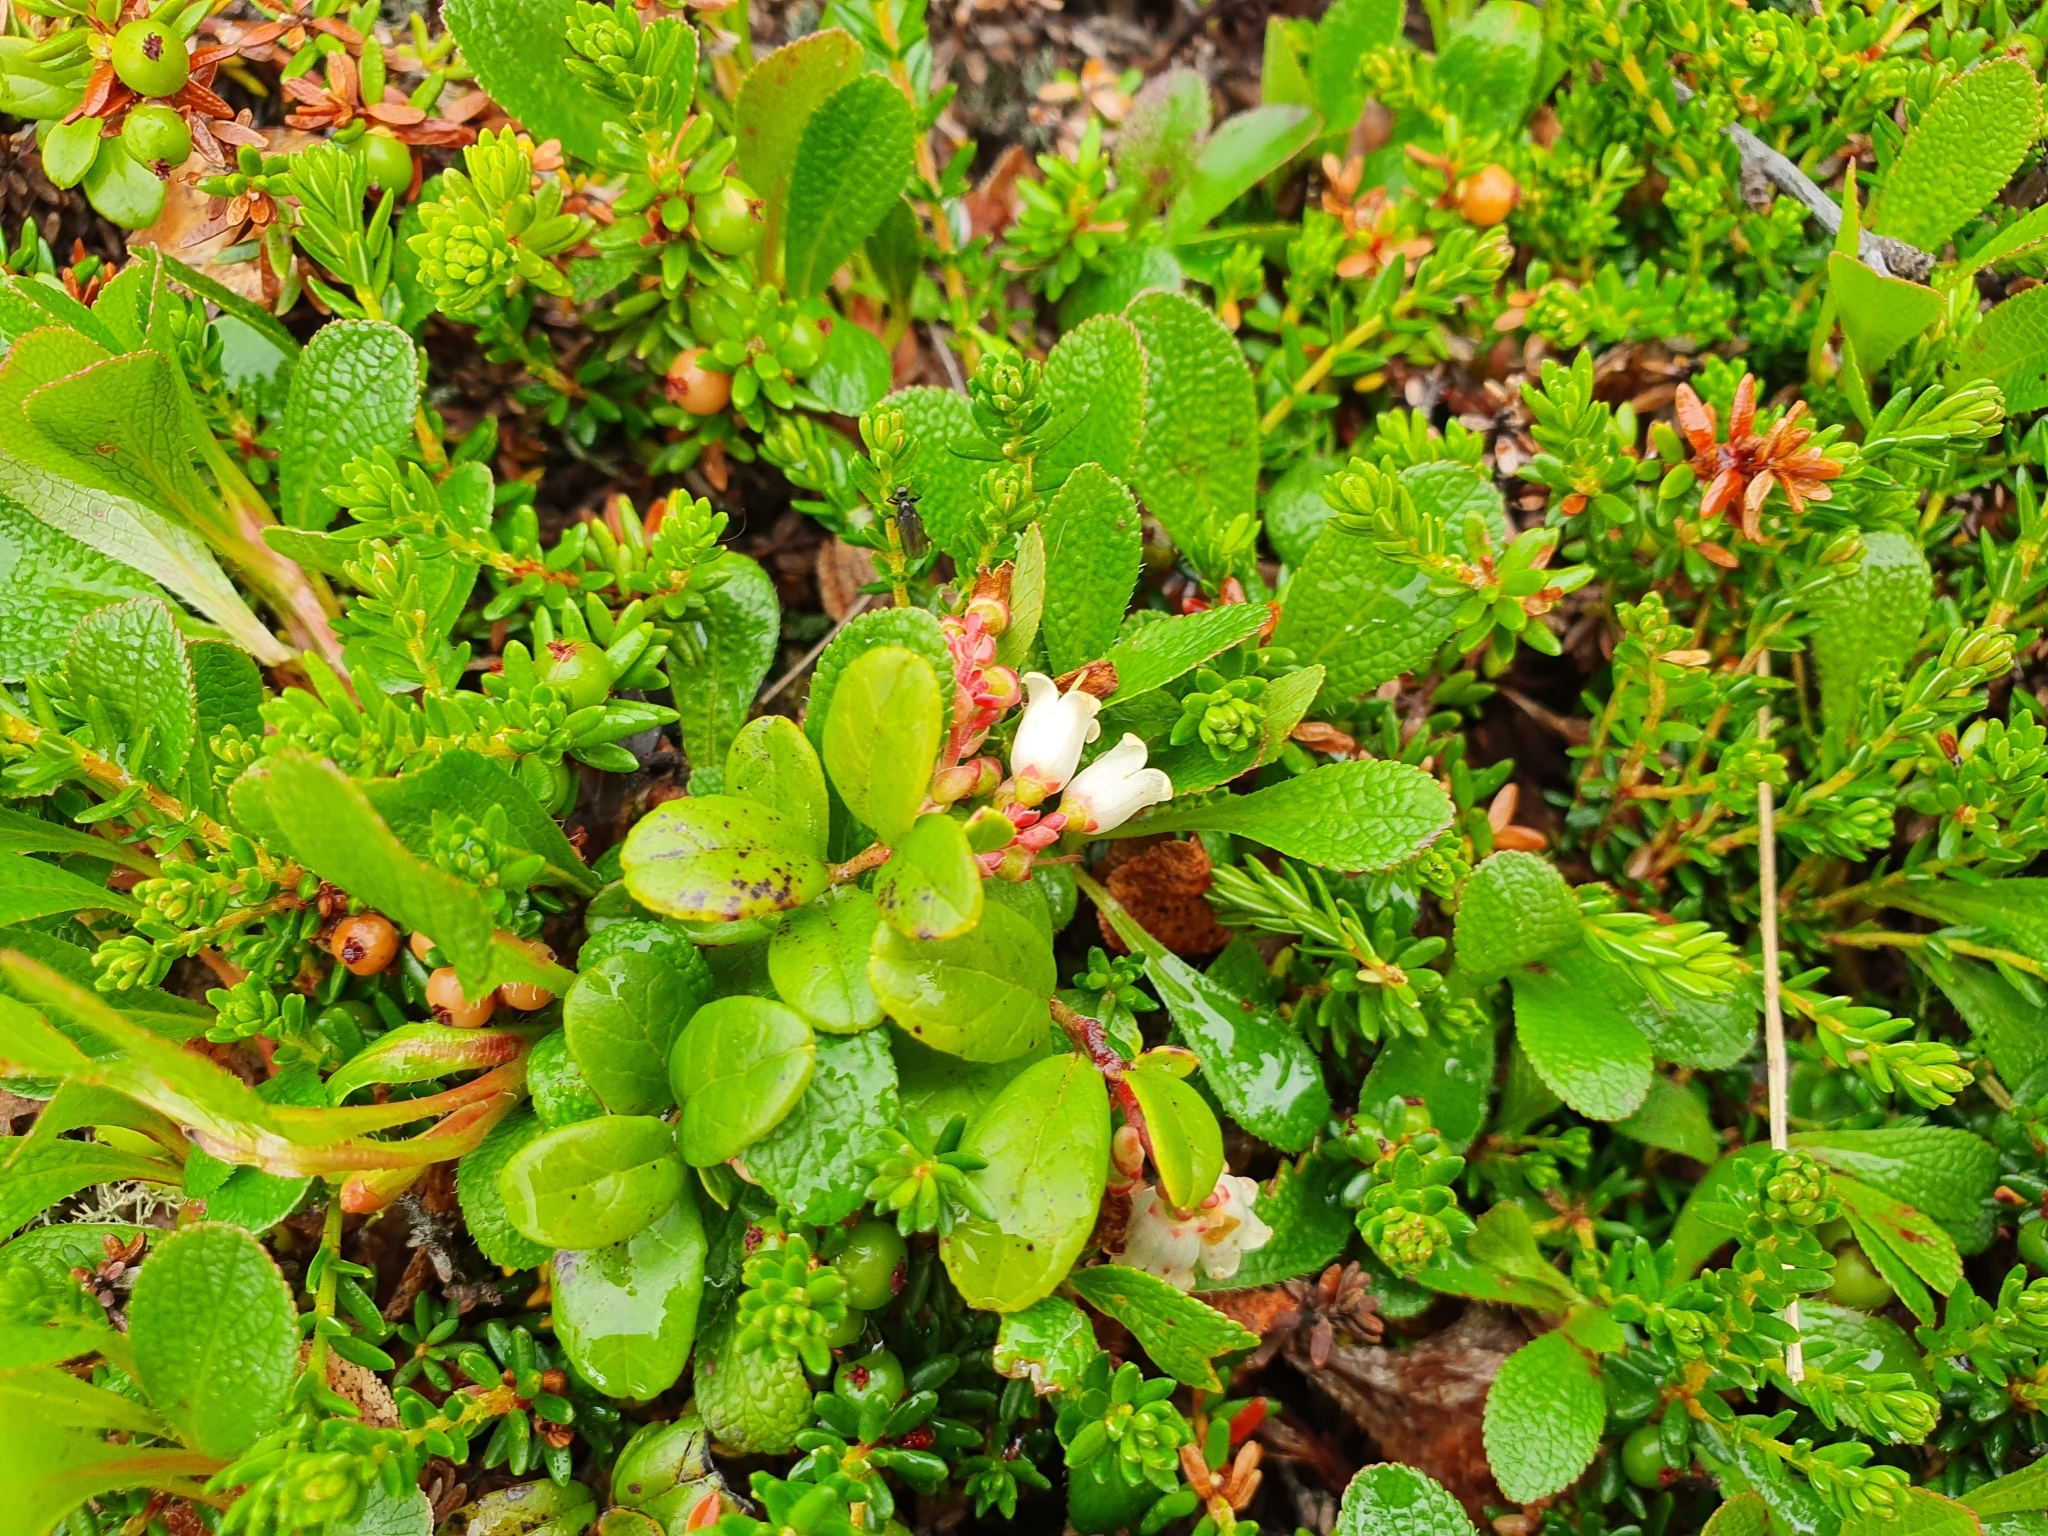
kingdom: Plantae
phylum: Tracheophyta
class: Magnoliopsida
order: Ericales
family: Ericaceae
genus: Vaccinium
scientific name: Vaccinium vitis-idaea
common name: Cowberry
